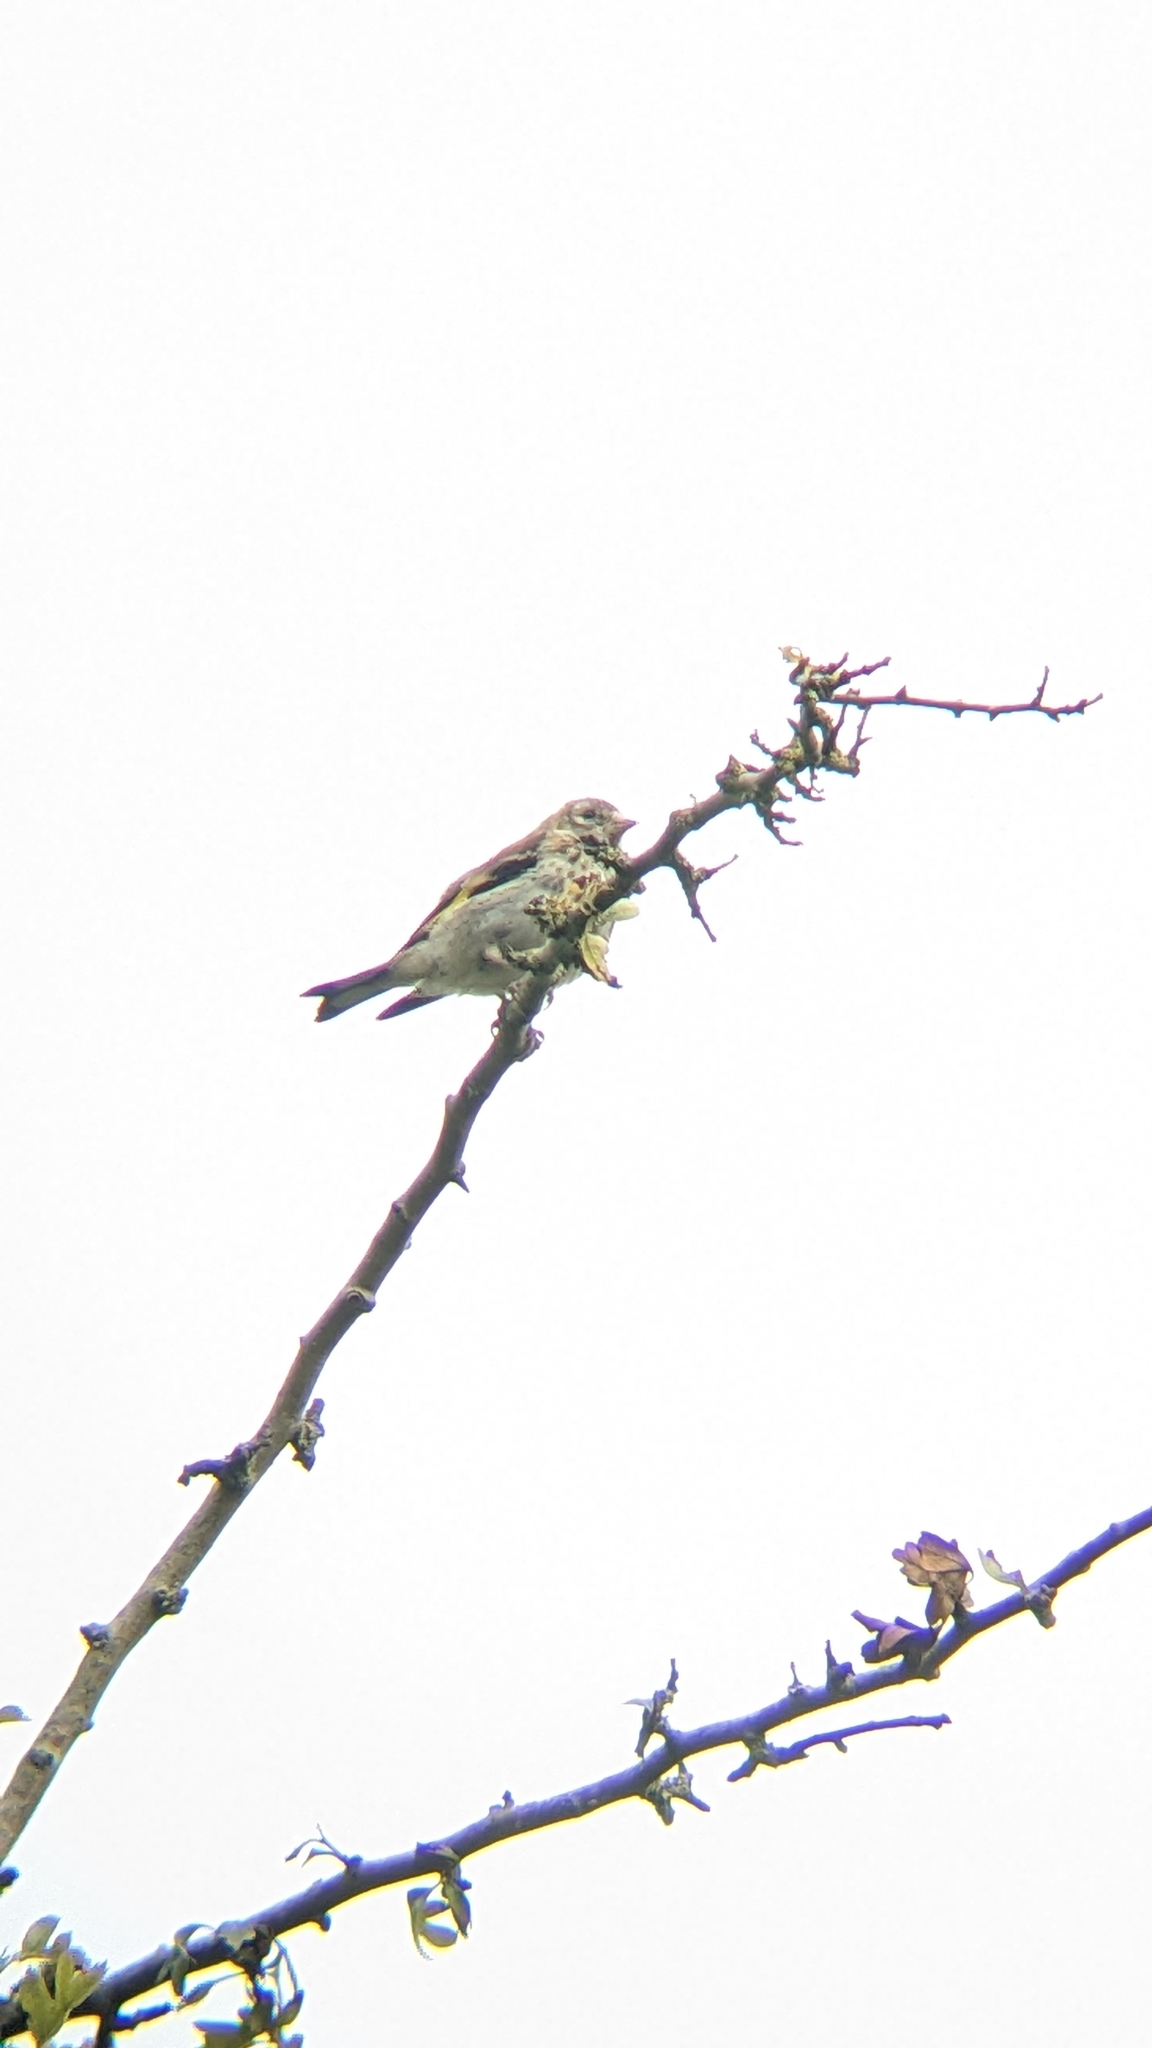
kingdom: Animalia
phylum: Chordata
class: Aves
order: Passeriformes
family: Fringillidae
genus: Carduelis
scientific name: Carduelis carduelis
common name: European goldfinch
